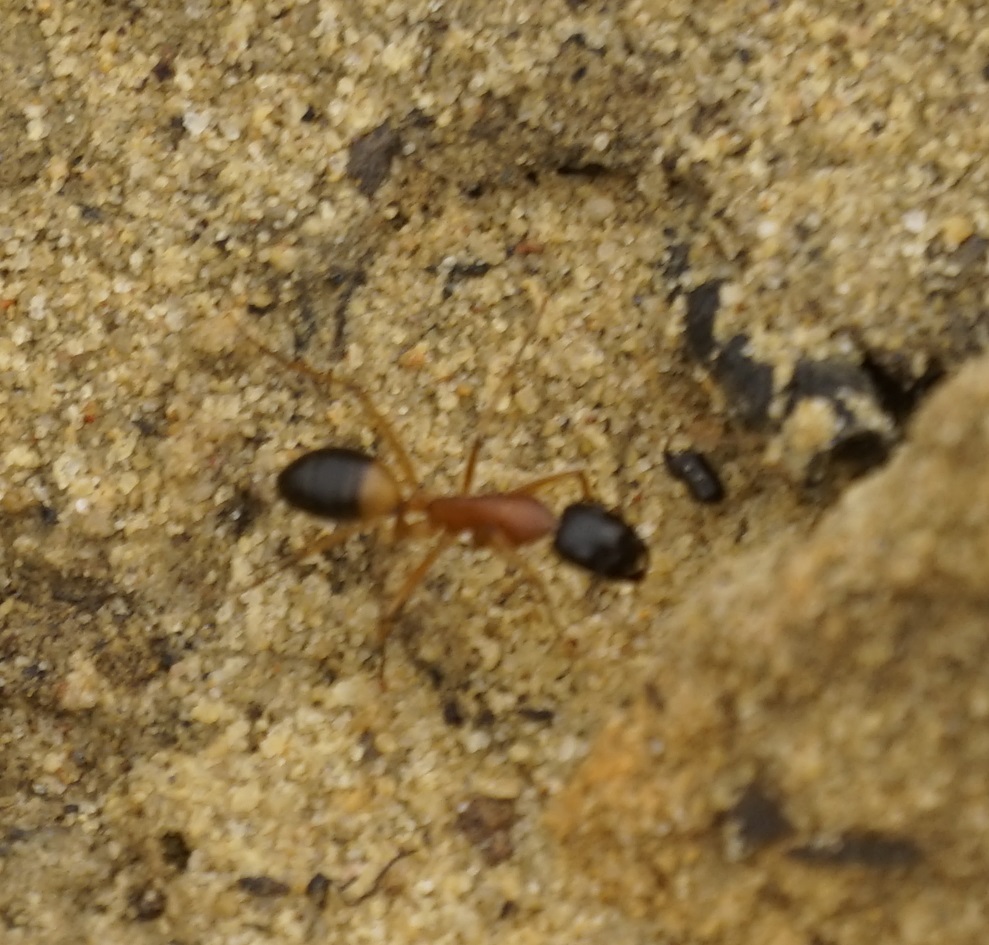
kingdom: Animalia
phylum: Arthropoda
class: Insecta
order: Hymenoptera
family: Formicidae
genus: Camponotus
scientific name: Camponotus consobrinus
